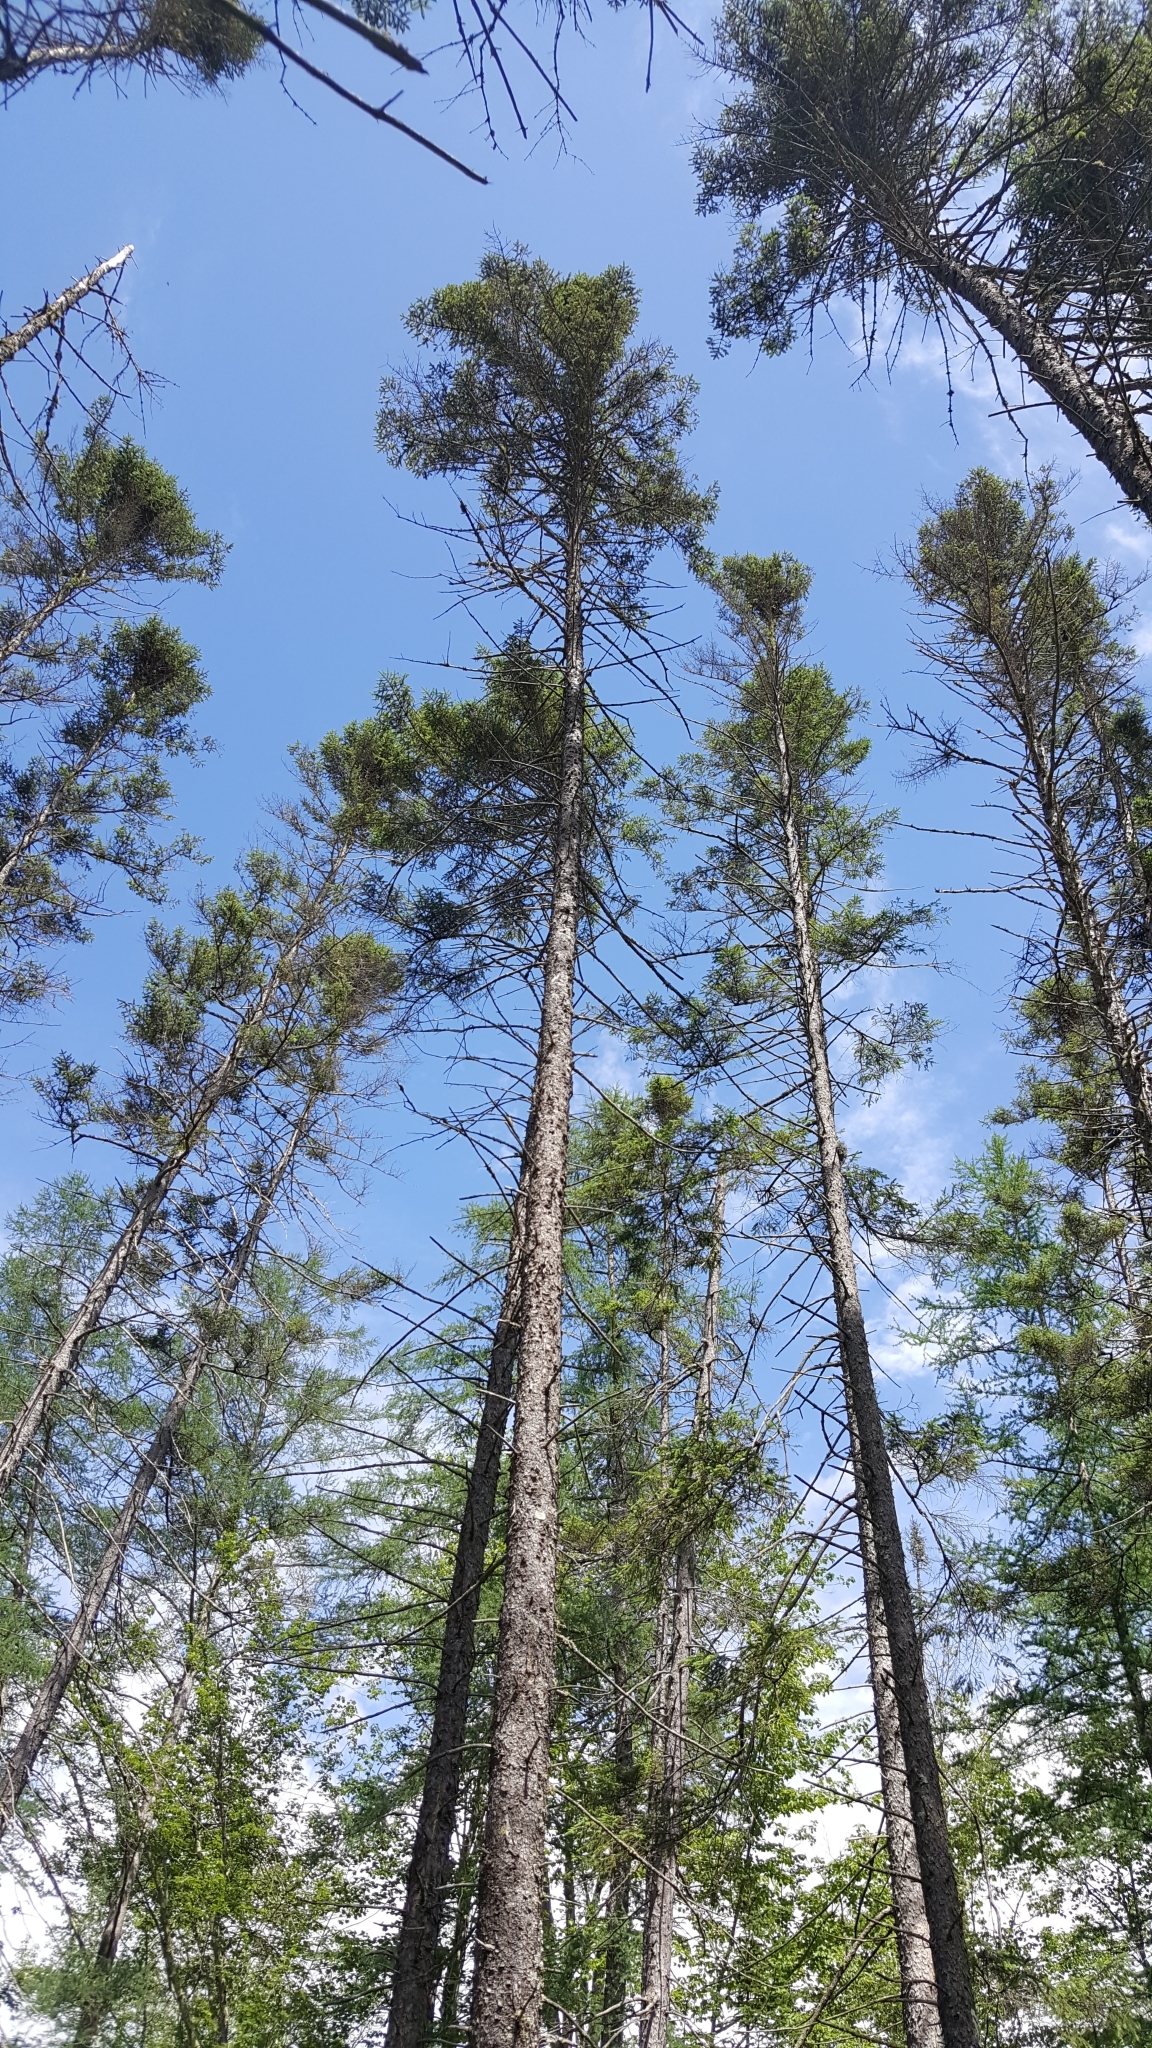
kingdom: Plantae
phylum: Tracheophyta
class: Pinopsida
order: Pinales
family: Pinaceae
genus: Picea
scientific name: Picea mariana
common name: Black spruce
